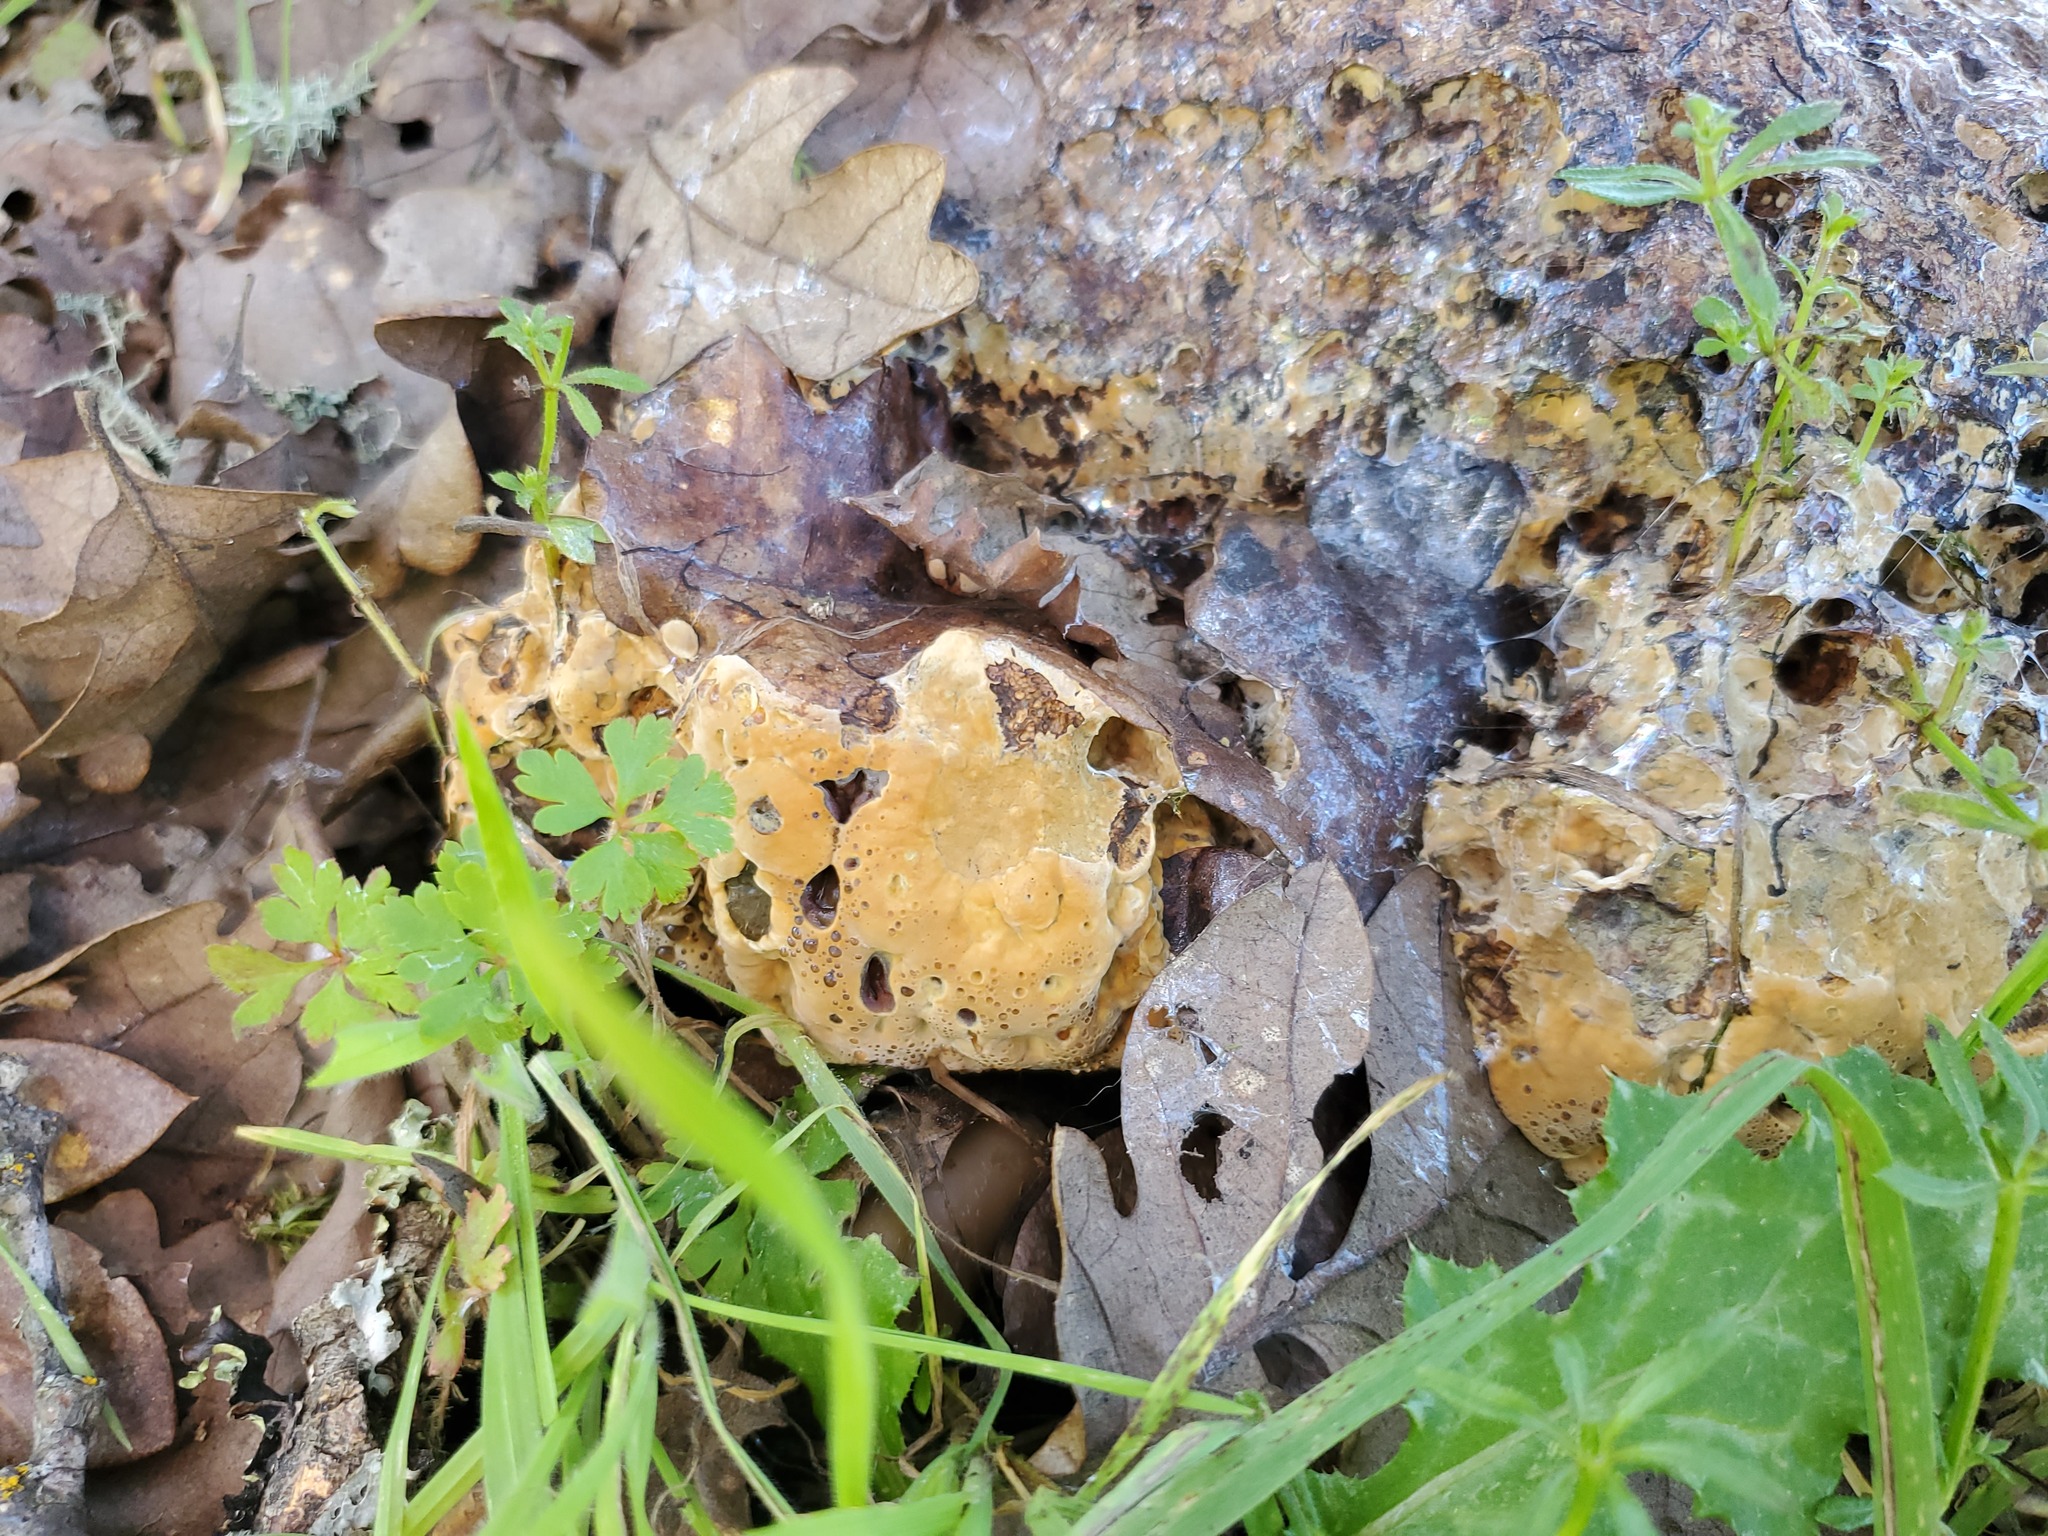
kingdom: Fungi
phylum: Basidiomycota
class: Agaricomycetes
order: Hymenochaetales
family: Hymenochaetaceae
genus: Pseudoinonotus
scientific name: Pseudoinonotus dryadeus
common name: Oak bracket
